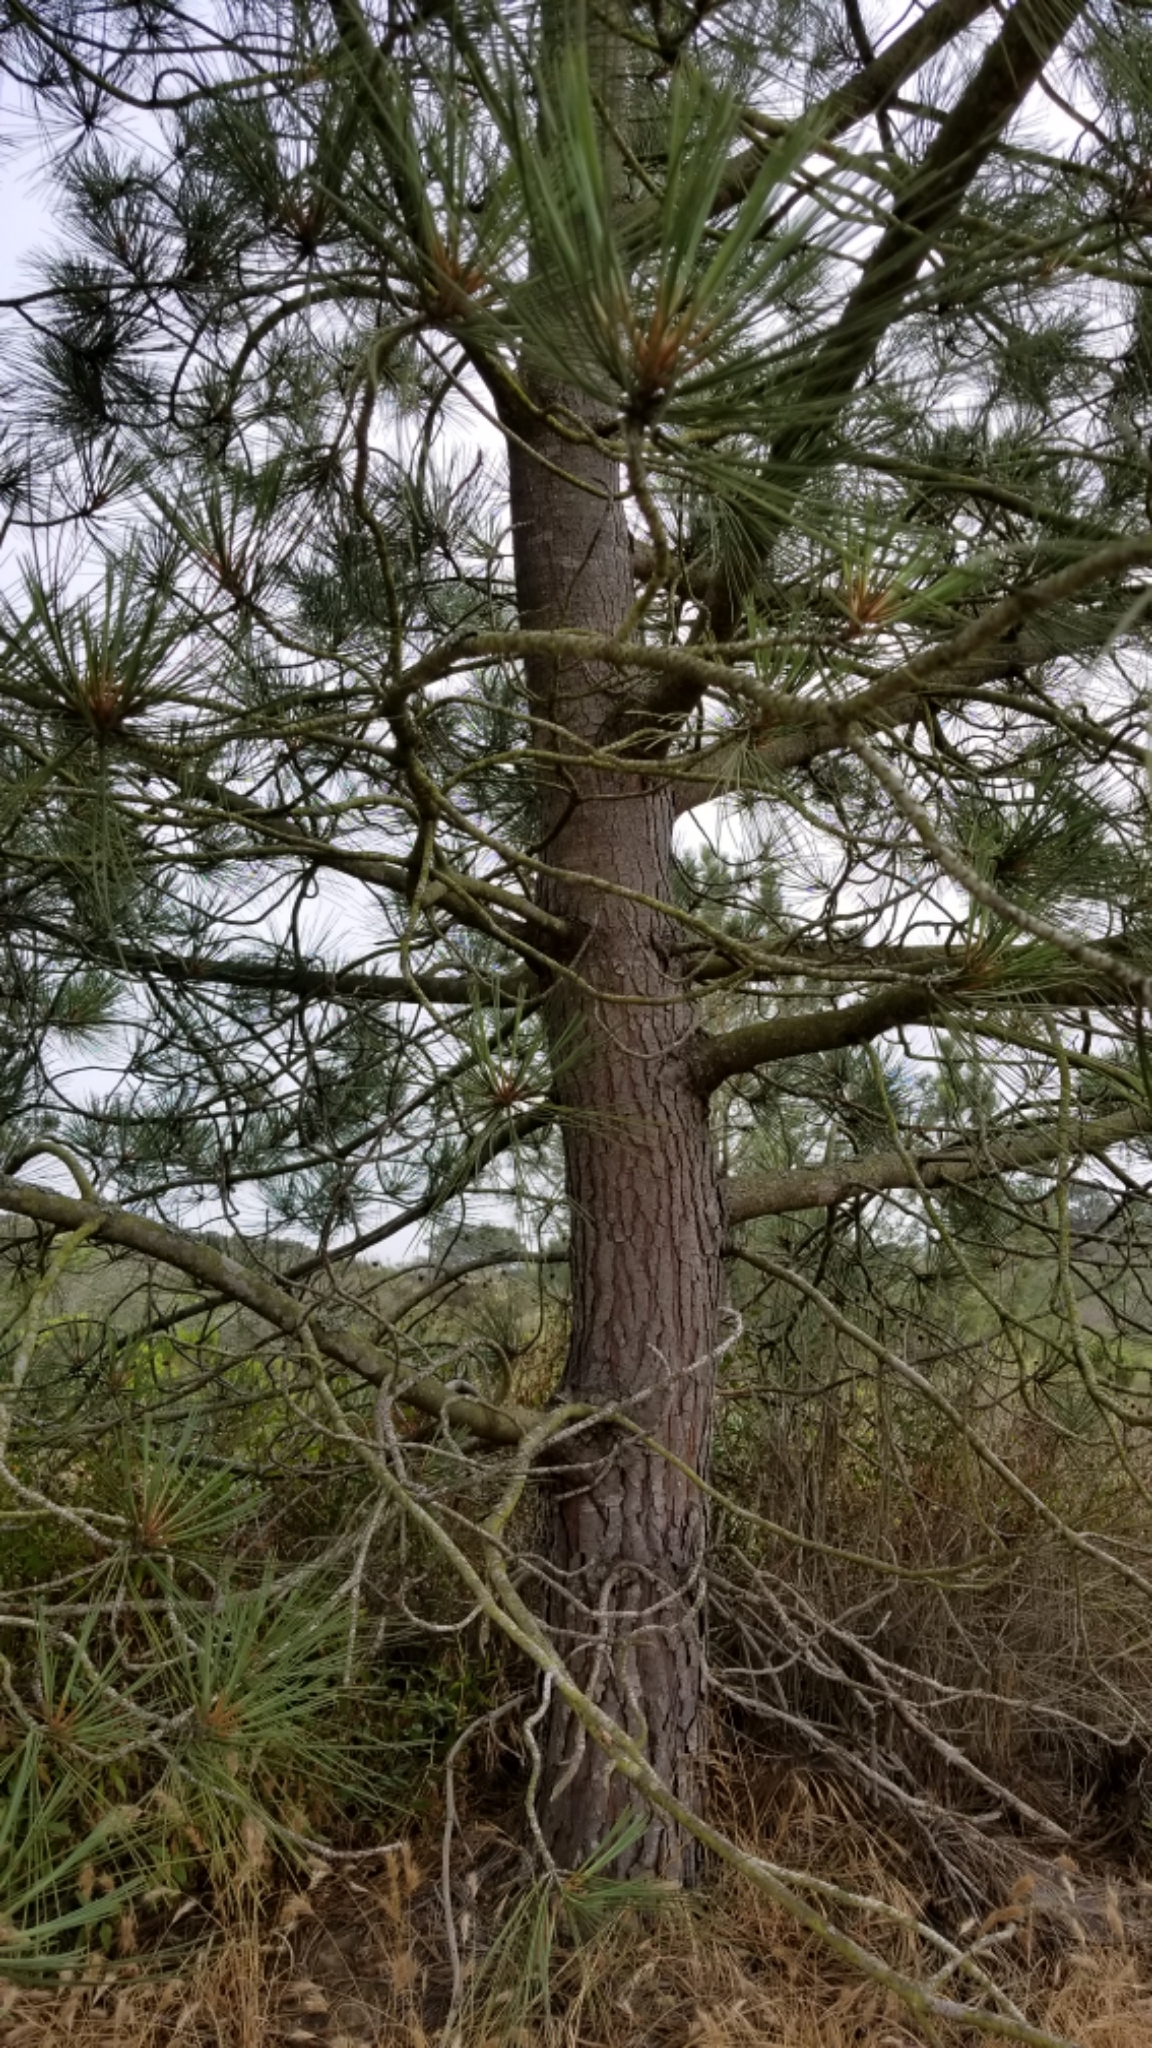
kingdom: Plantae
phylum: Tracheophyta
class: Pinopsida
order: Pinales
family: Pinaceae
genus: Pinus
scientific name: Pinus torreyana
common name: Torrey pine
